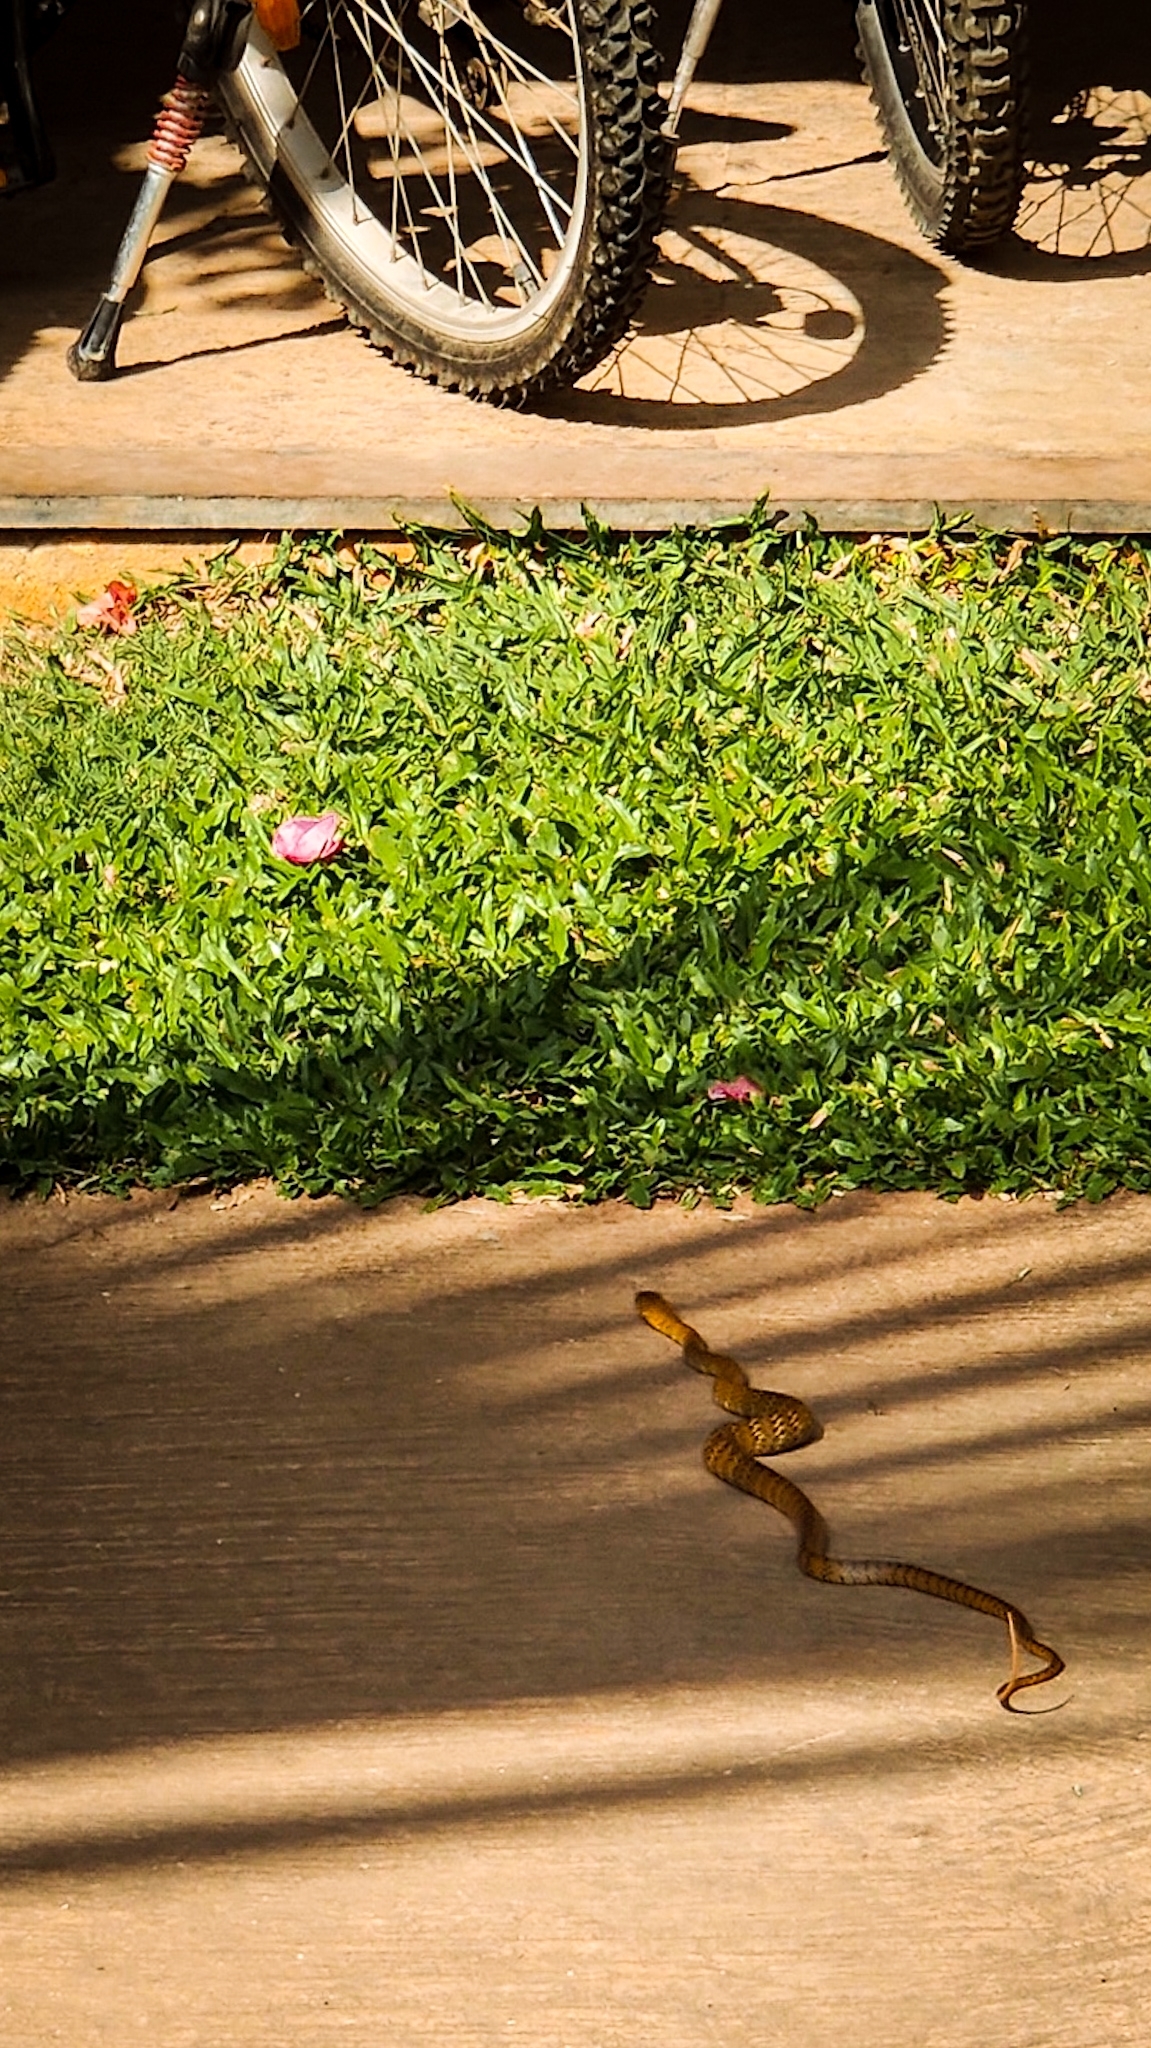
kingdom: Animalia
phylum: Chordata
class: Squamata
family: Colubridae
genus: Ptyas
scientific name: Ptyas mucosa
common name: Oriental ratsnake
